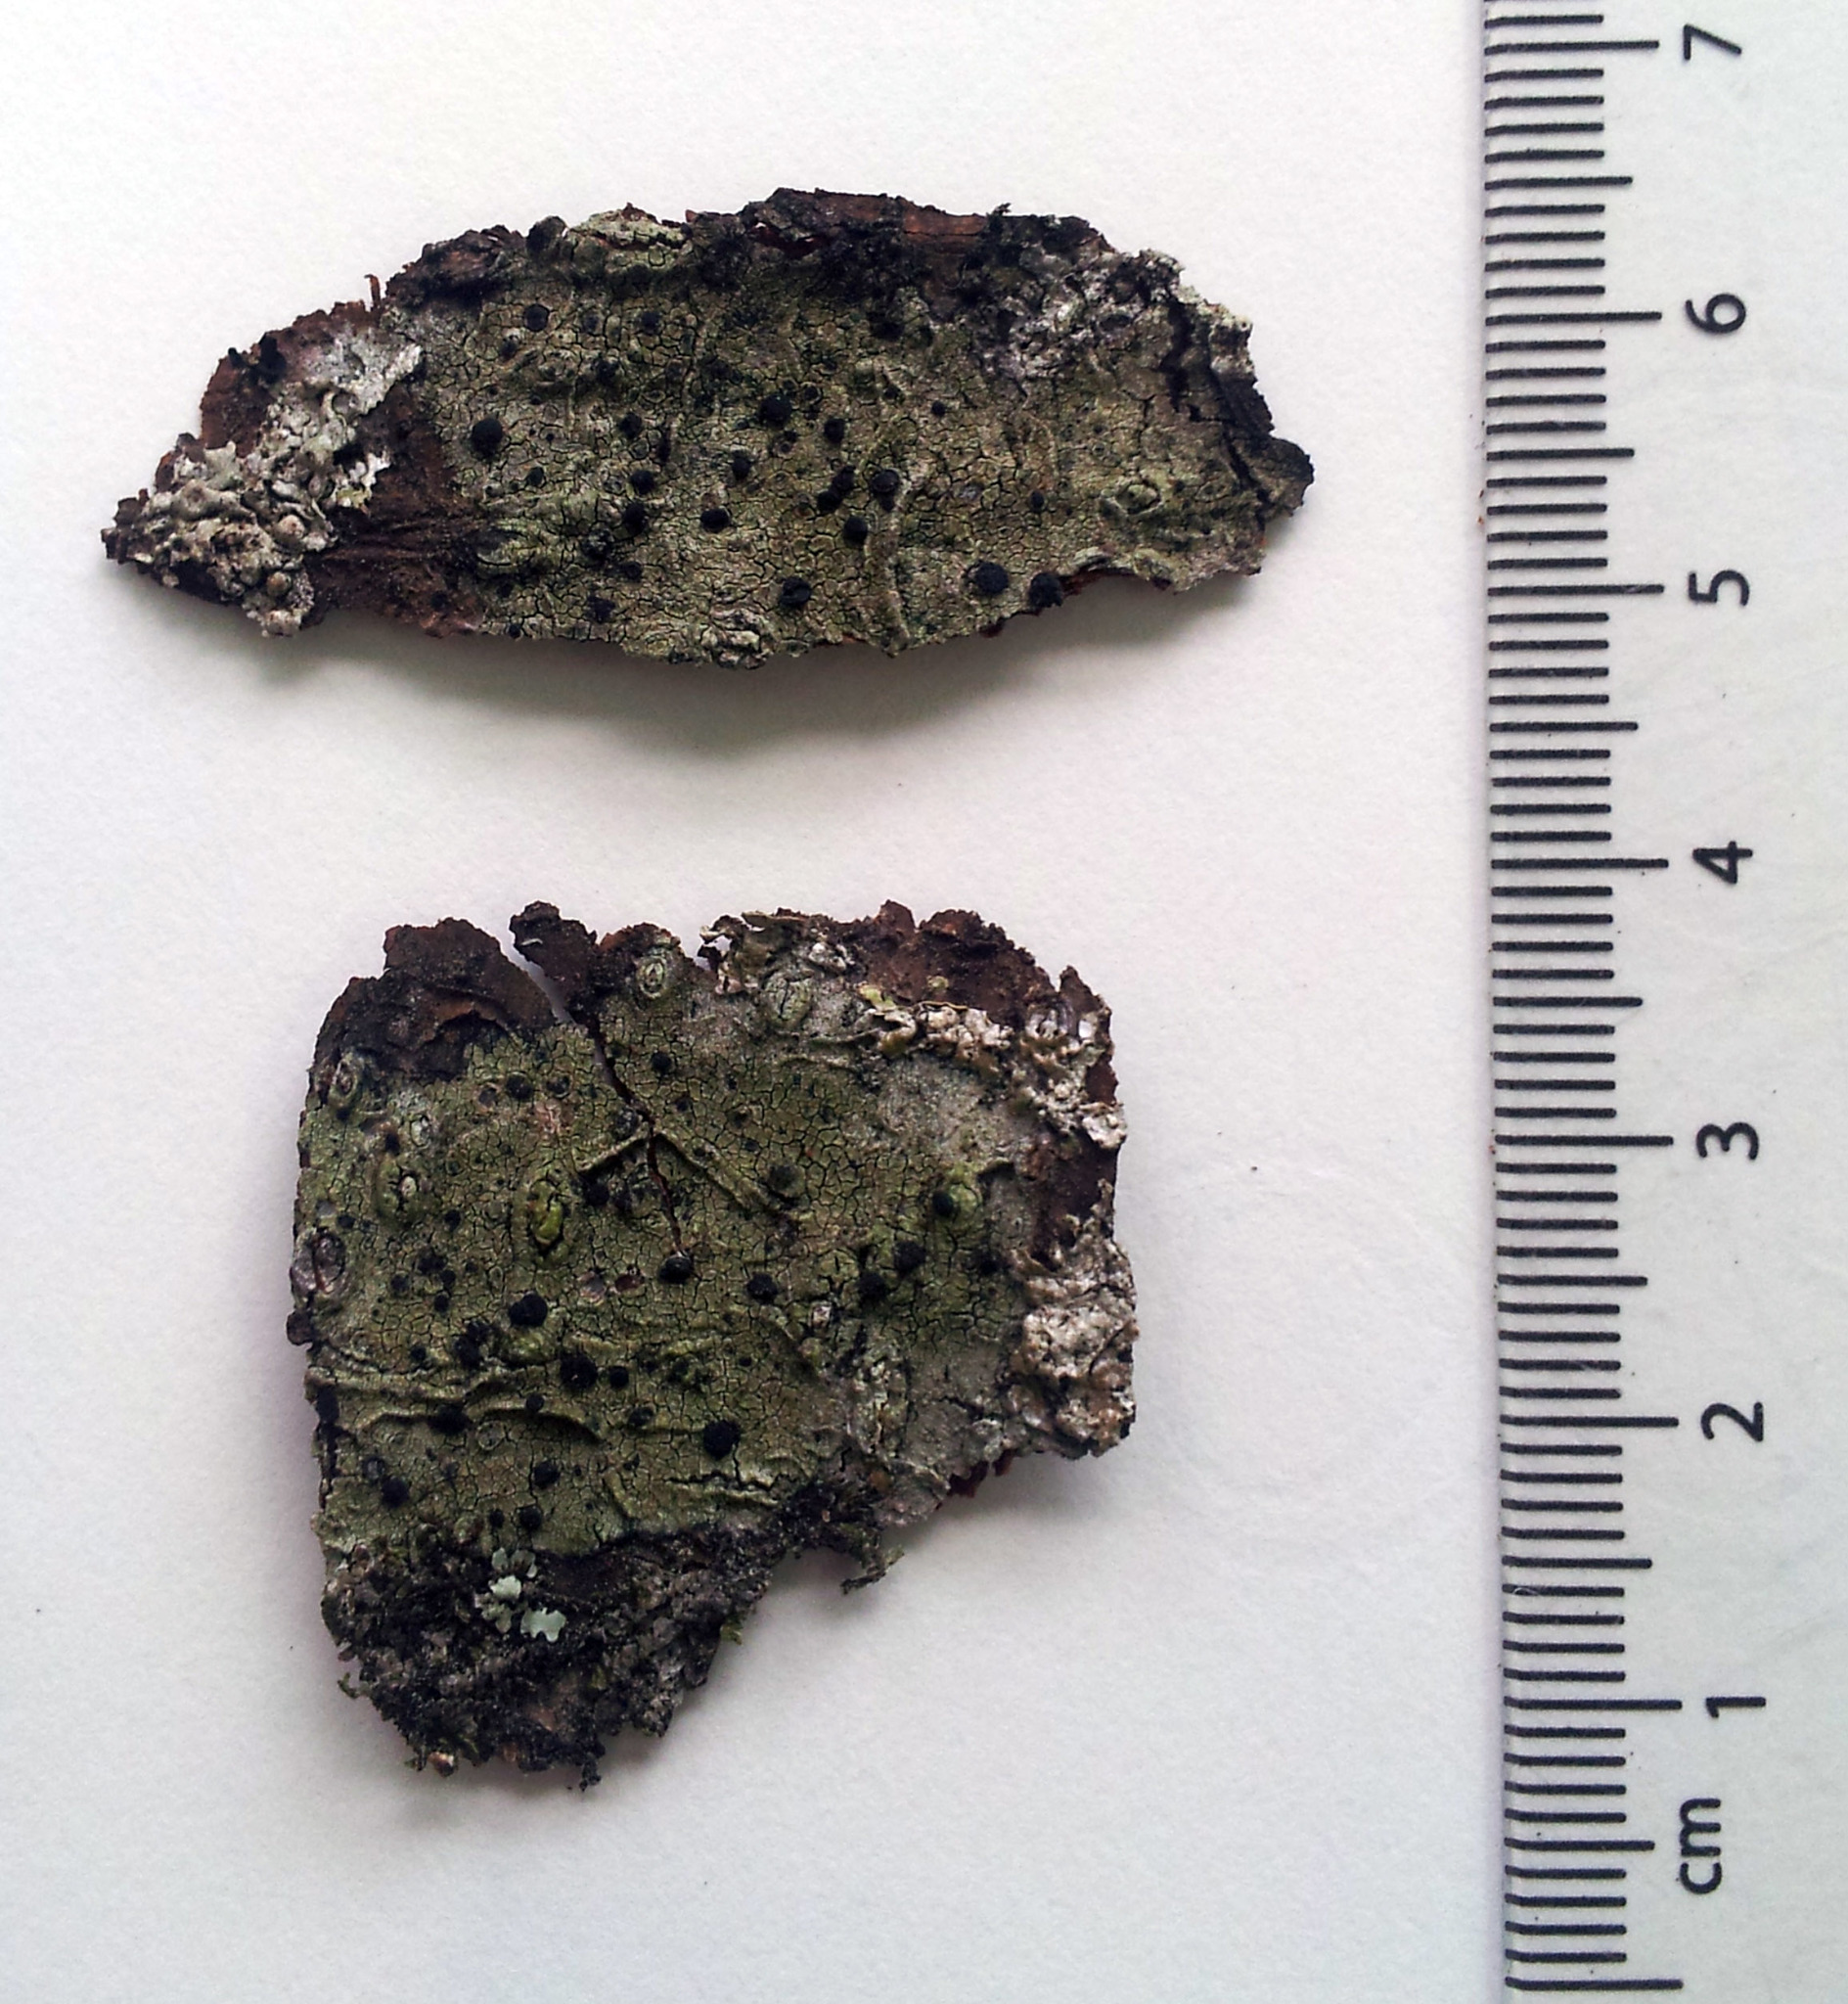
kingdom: Fungi
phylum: Ascomycota
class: Lecanoromycetes
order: Lecanorales
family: Ramalinaceae
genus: Megalaria
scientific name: Megalaria grossa
